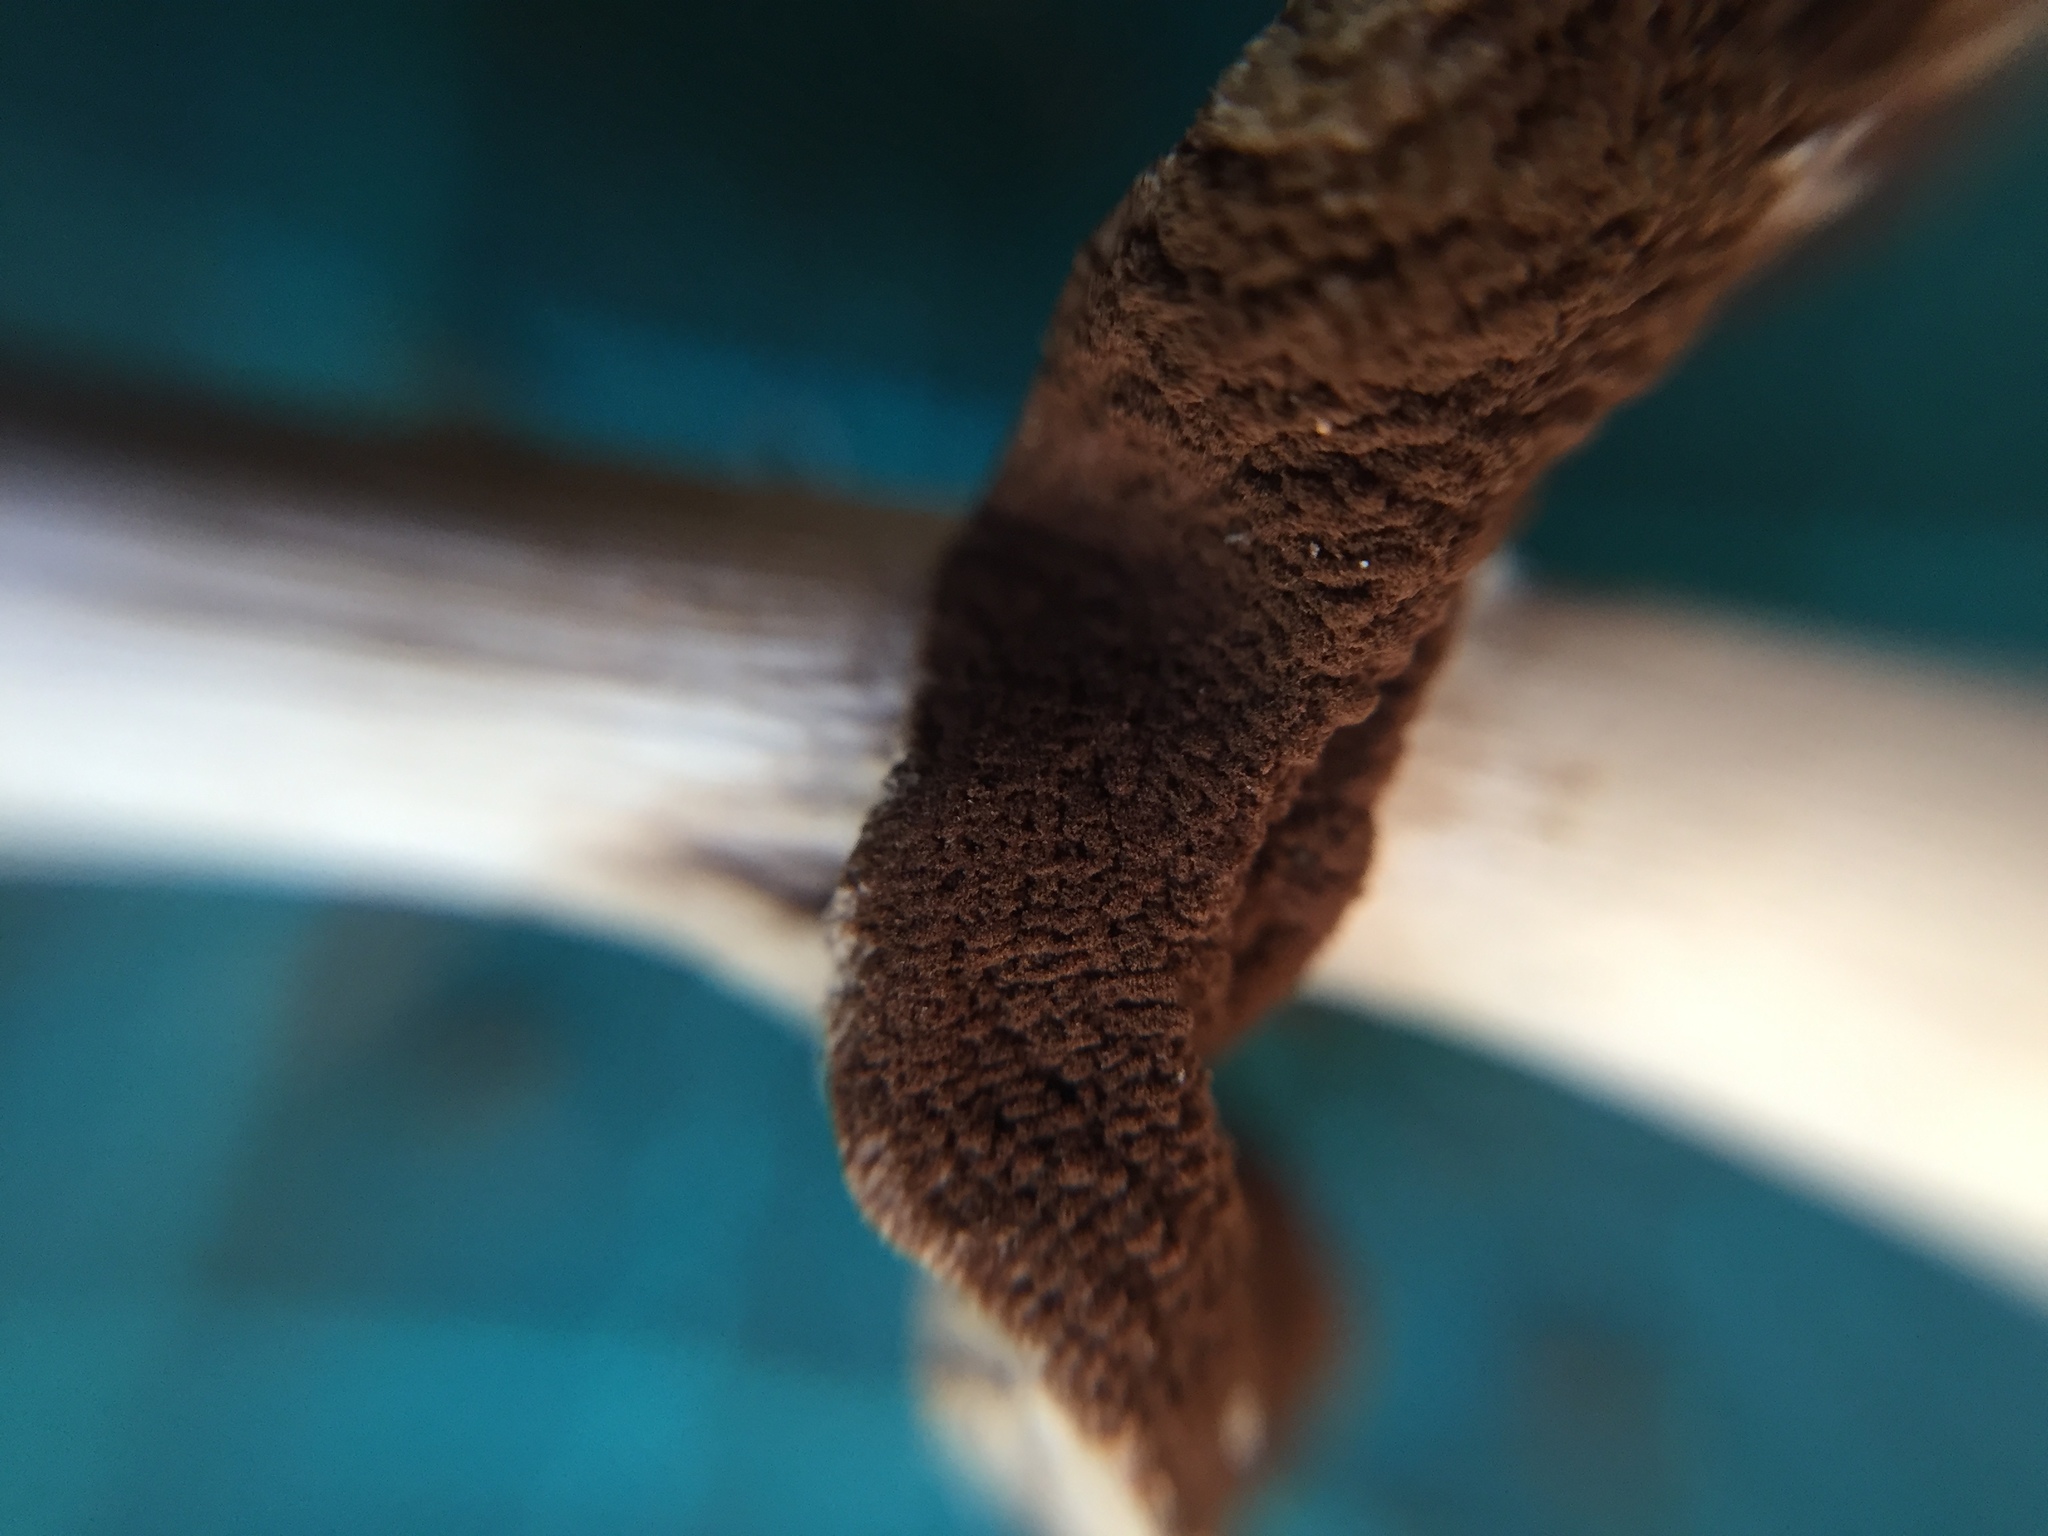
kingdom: Fungi
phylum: Basidiomycota
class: Agaricomycetes
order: Agaricales
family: Tubariaceae
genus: Cyclocybe
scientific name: Cyclocybe cylindracea
